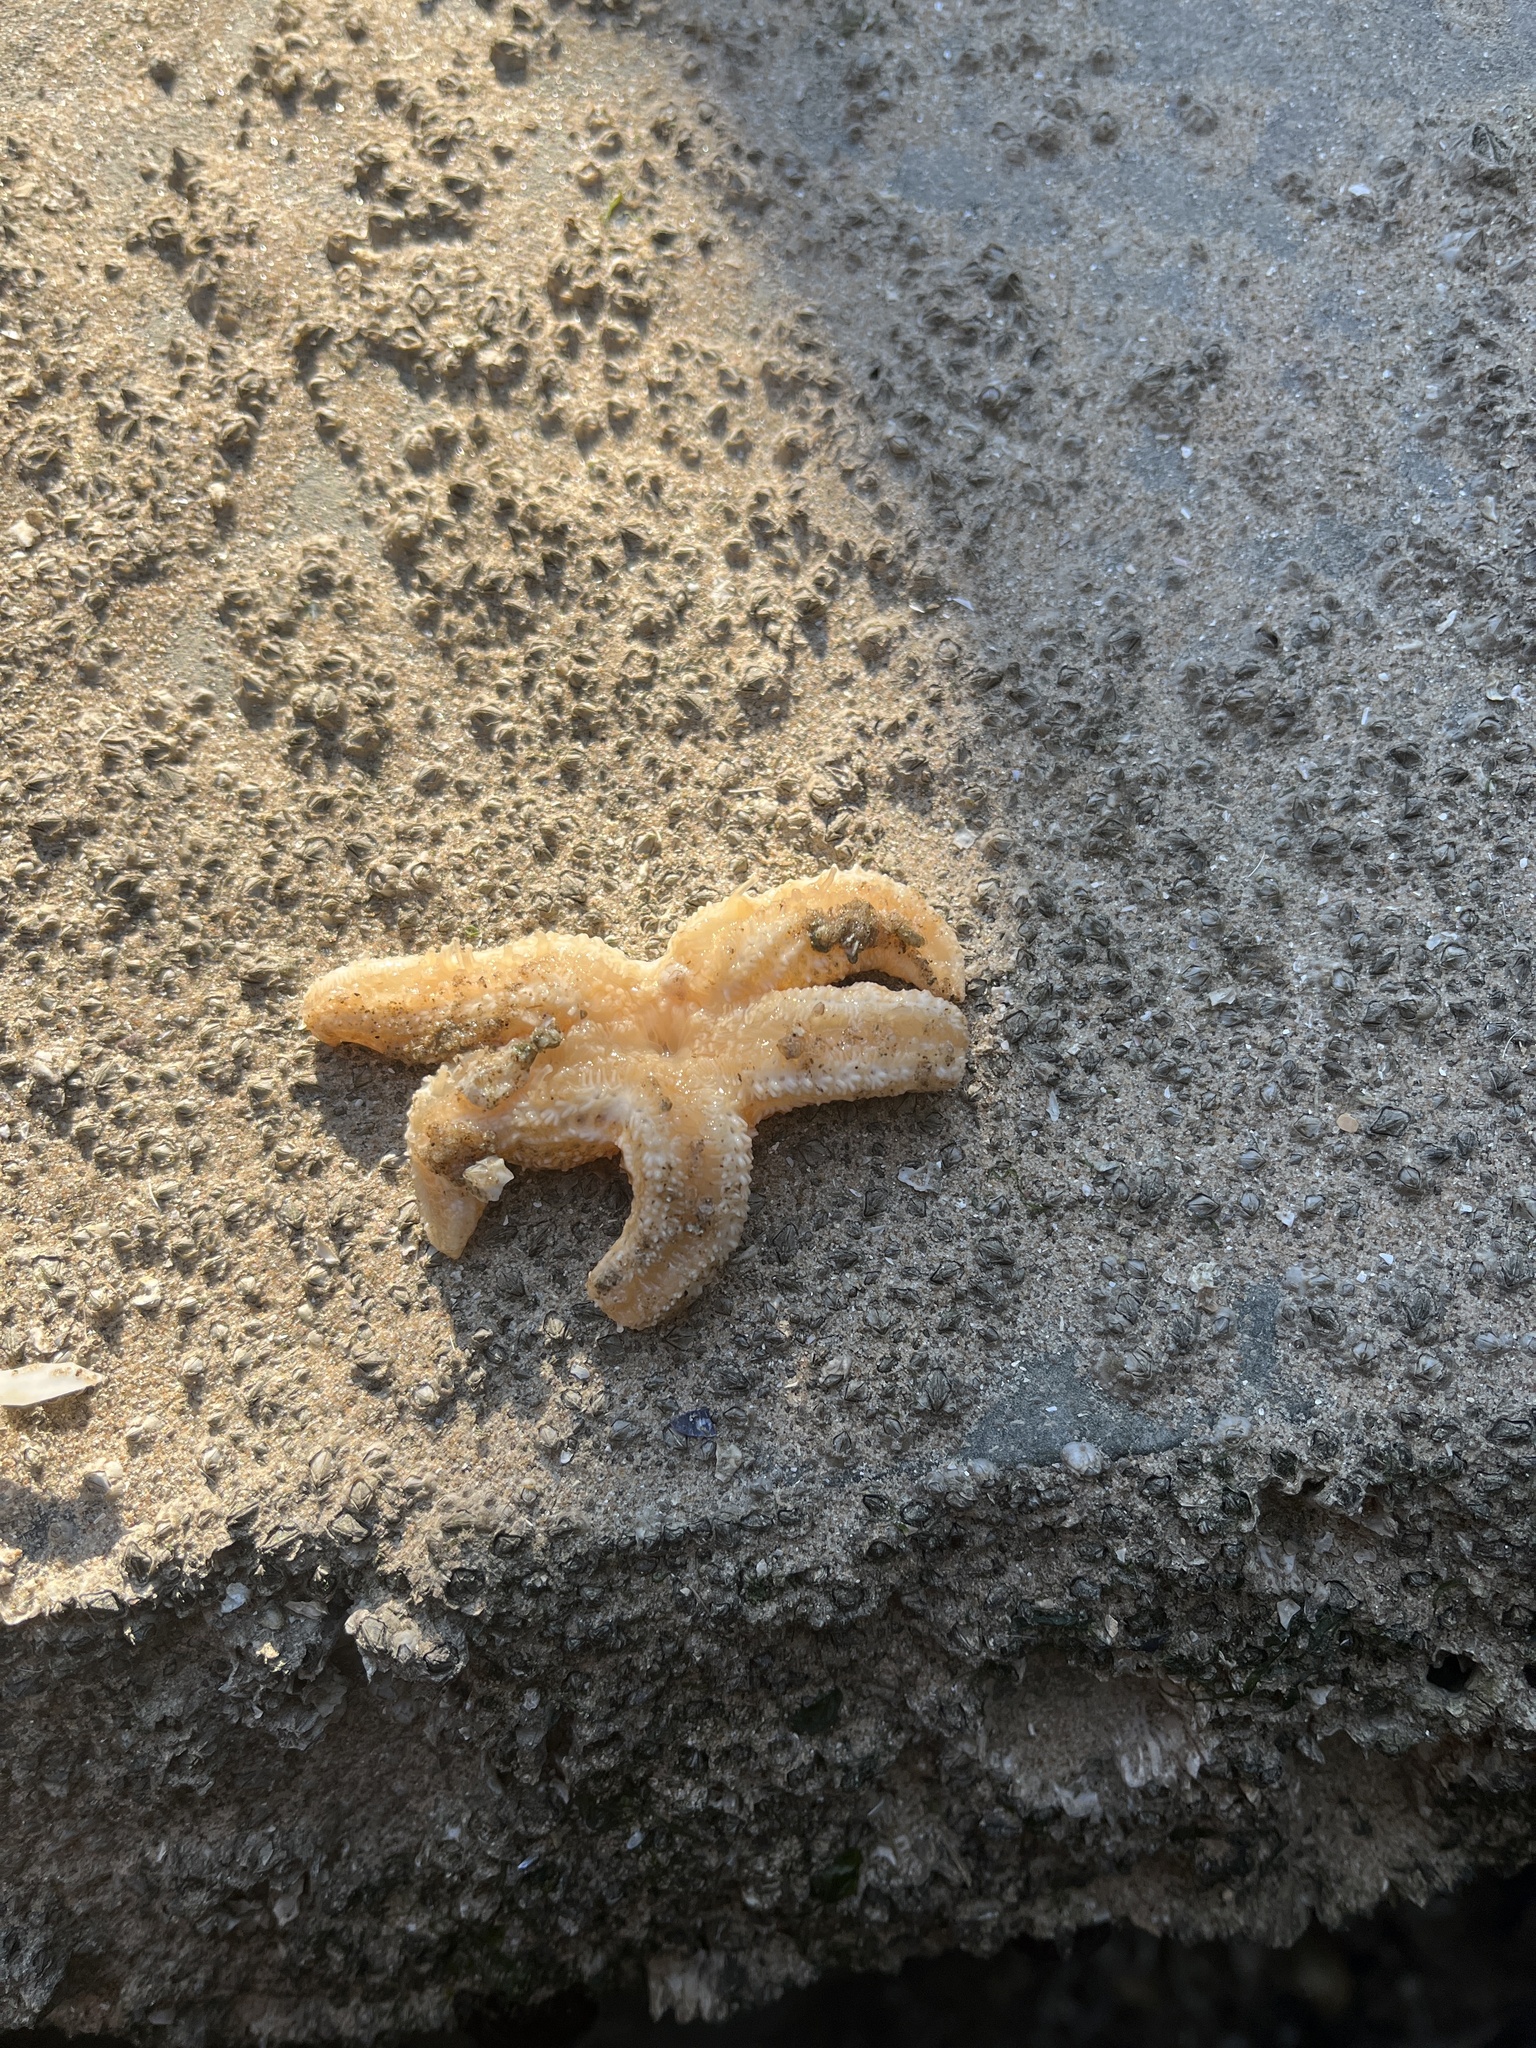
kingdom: Animalia
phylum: Echinodermata
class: Asteroidea
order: Forcipulatida
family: Asteriidae
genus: Asterias
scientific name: Asterias rubens
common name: Common starfish
